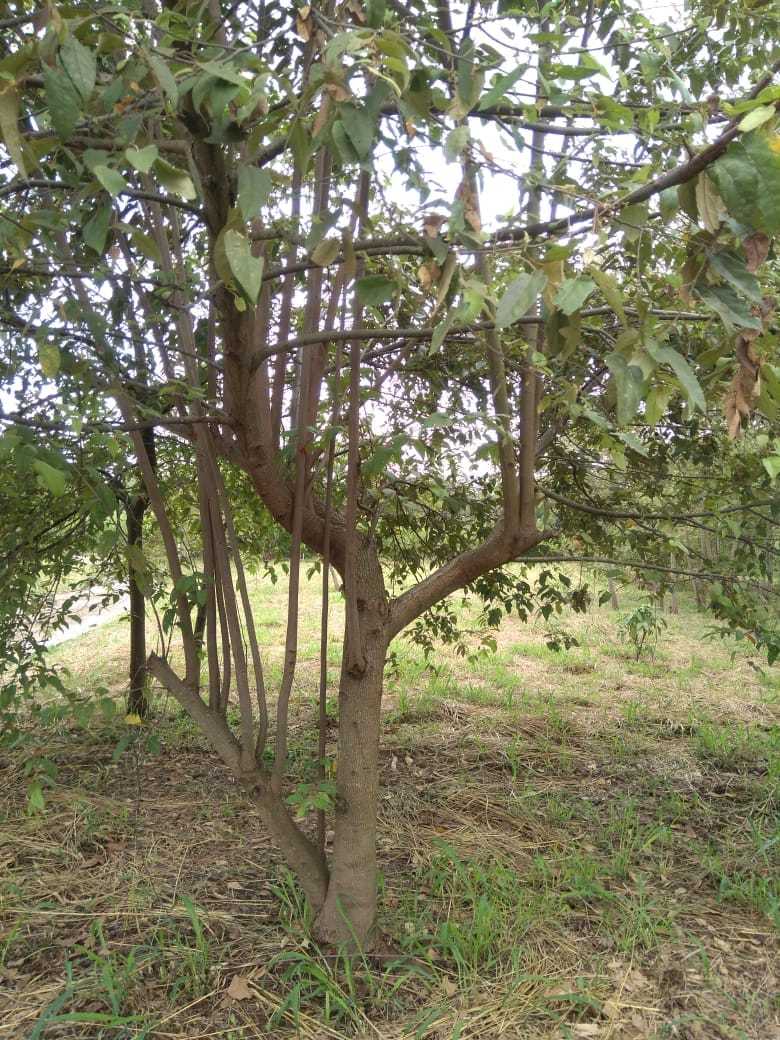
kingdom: Plantae
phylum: Tracheophyta
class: Magnoliopsida
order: Malvales
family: Malvaceae
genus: Guazuma
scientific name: Guazuma ulmifolia
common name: Bastard-cedar
